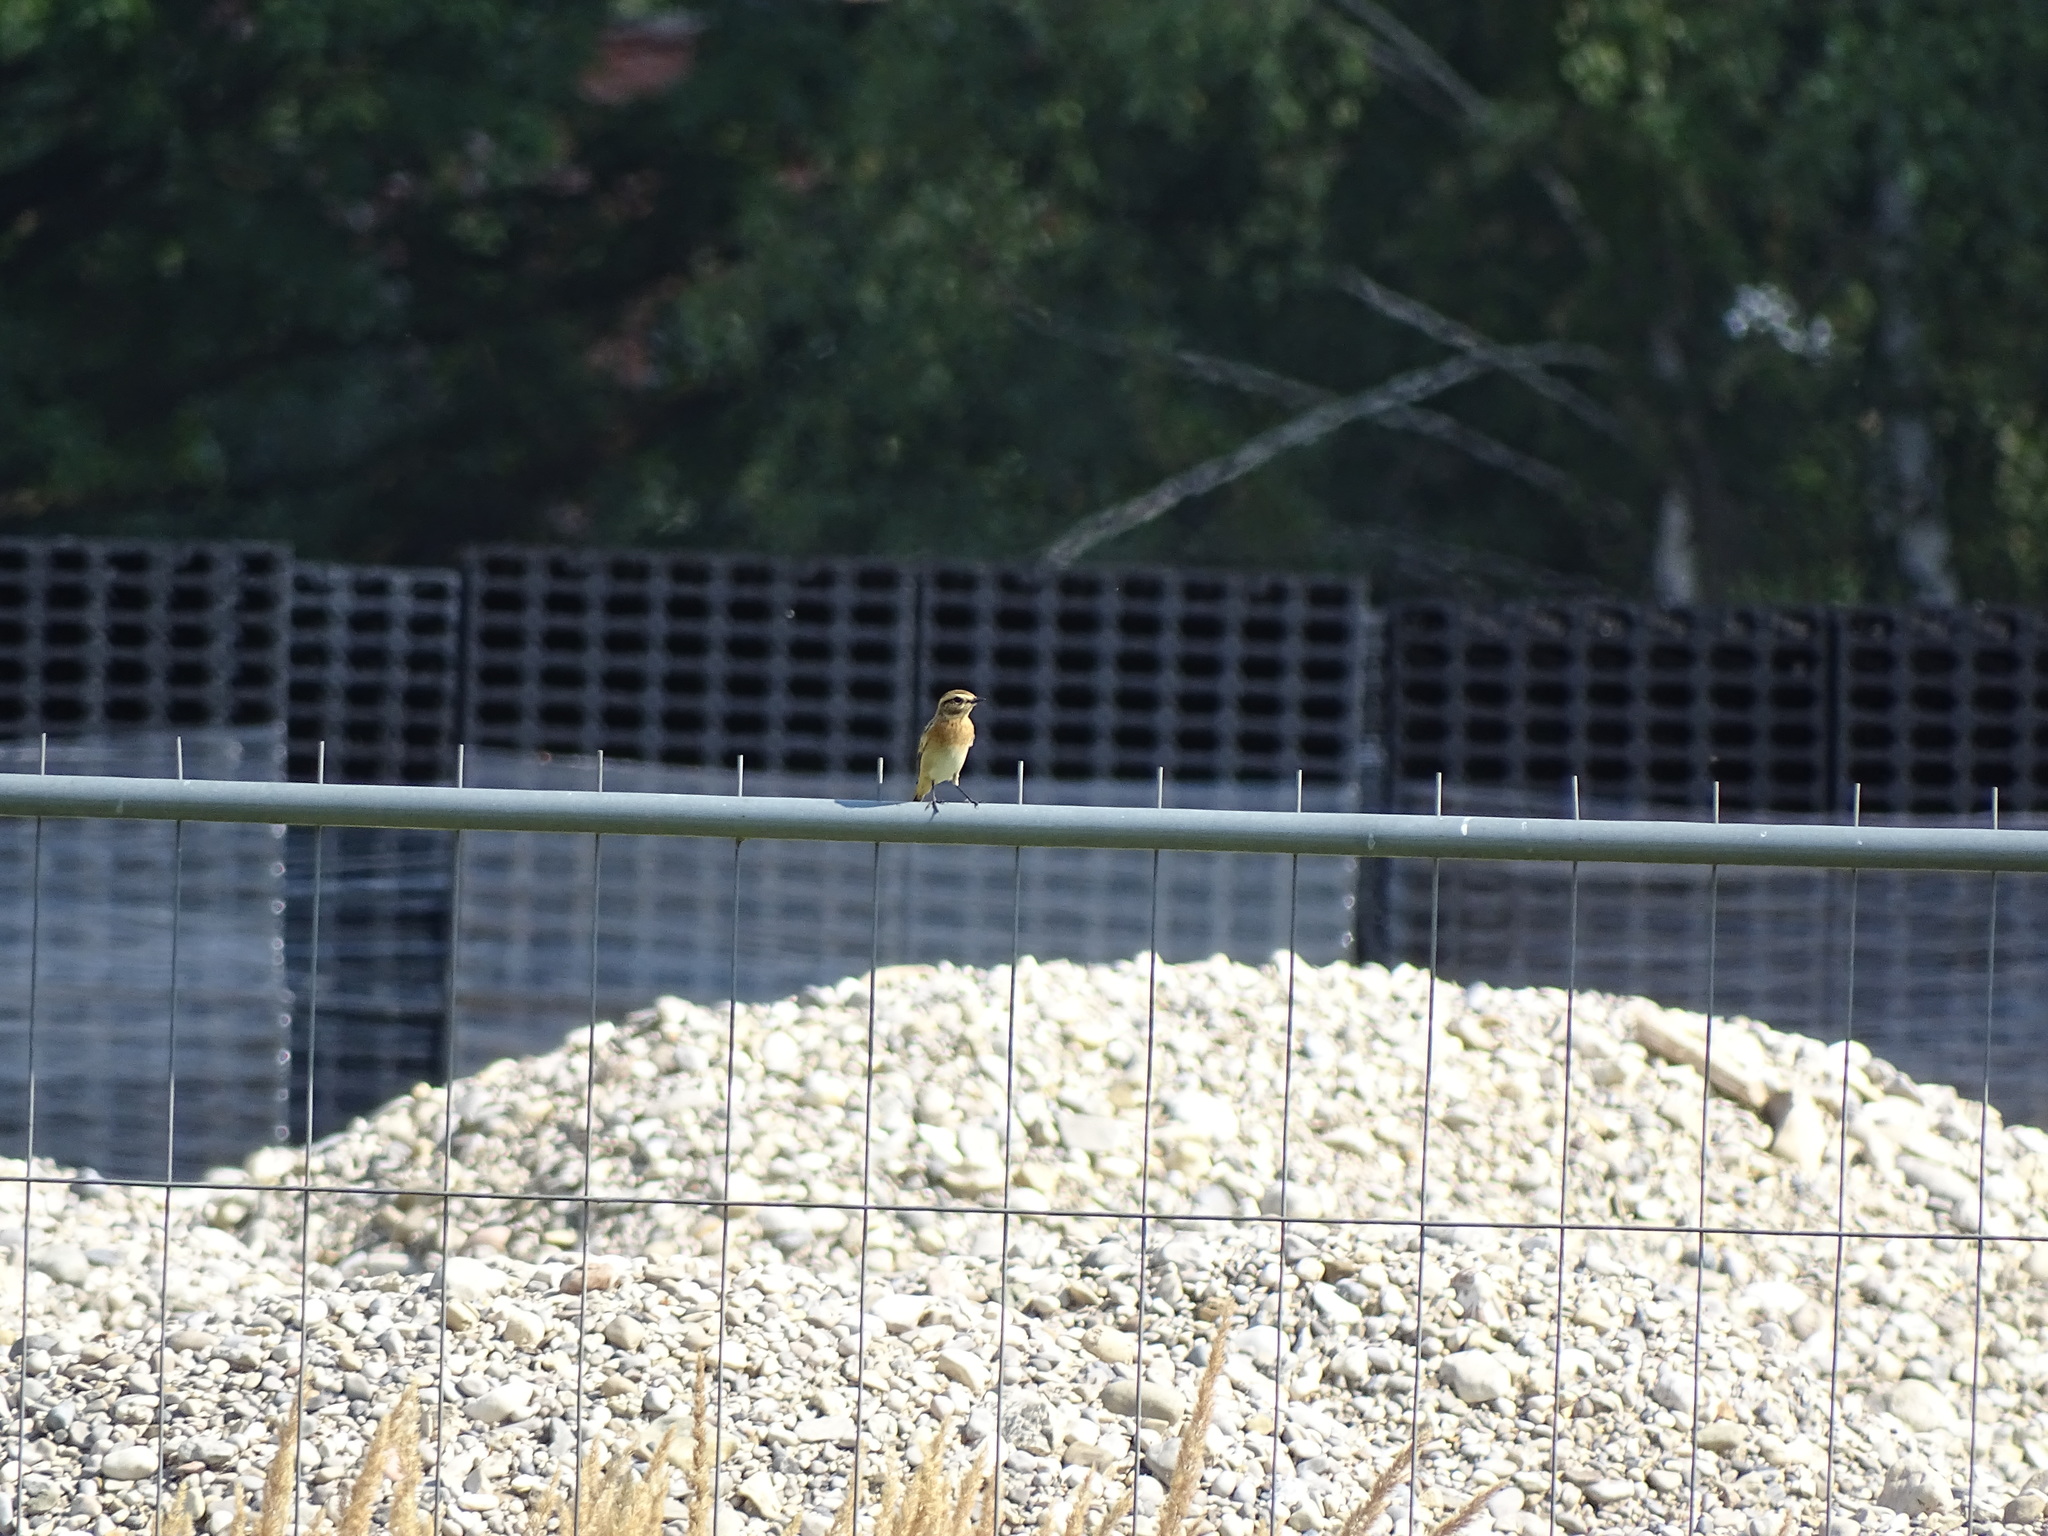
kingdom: Animalia
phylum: Chordata
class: Aves
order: Passeriformes
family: Muscicapidae
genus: Saxicola
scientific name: Saxicola rubetra
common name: Whinchat
